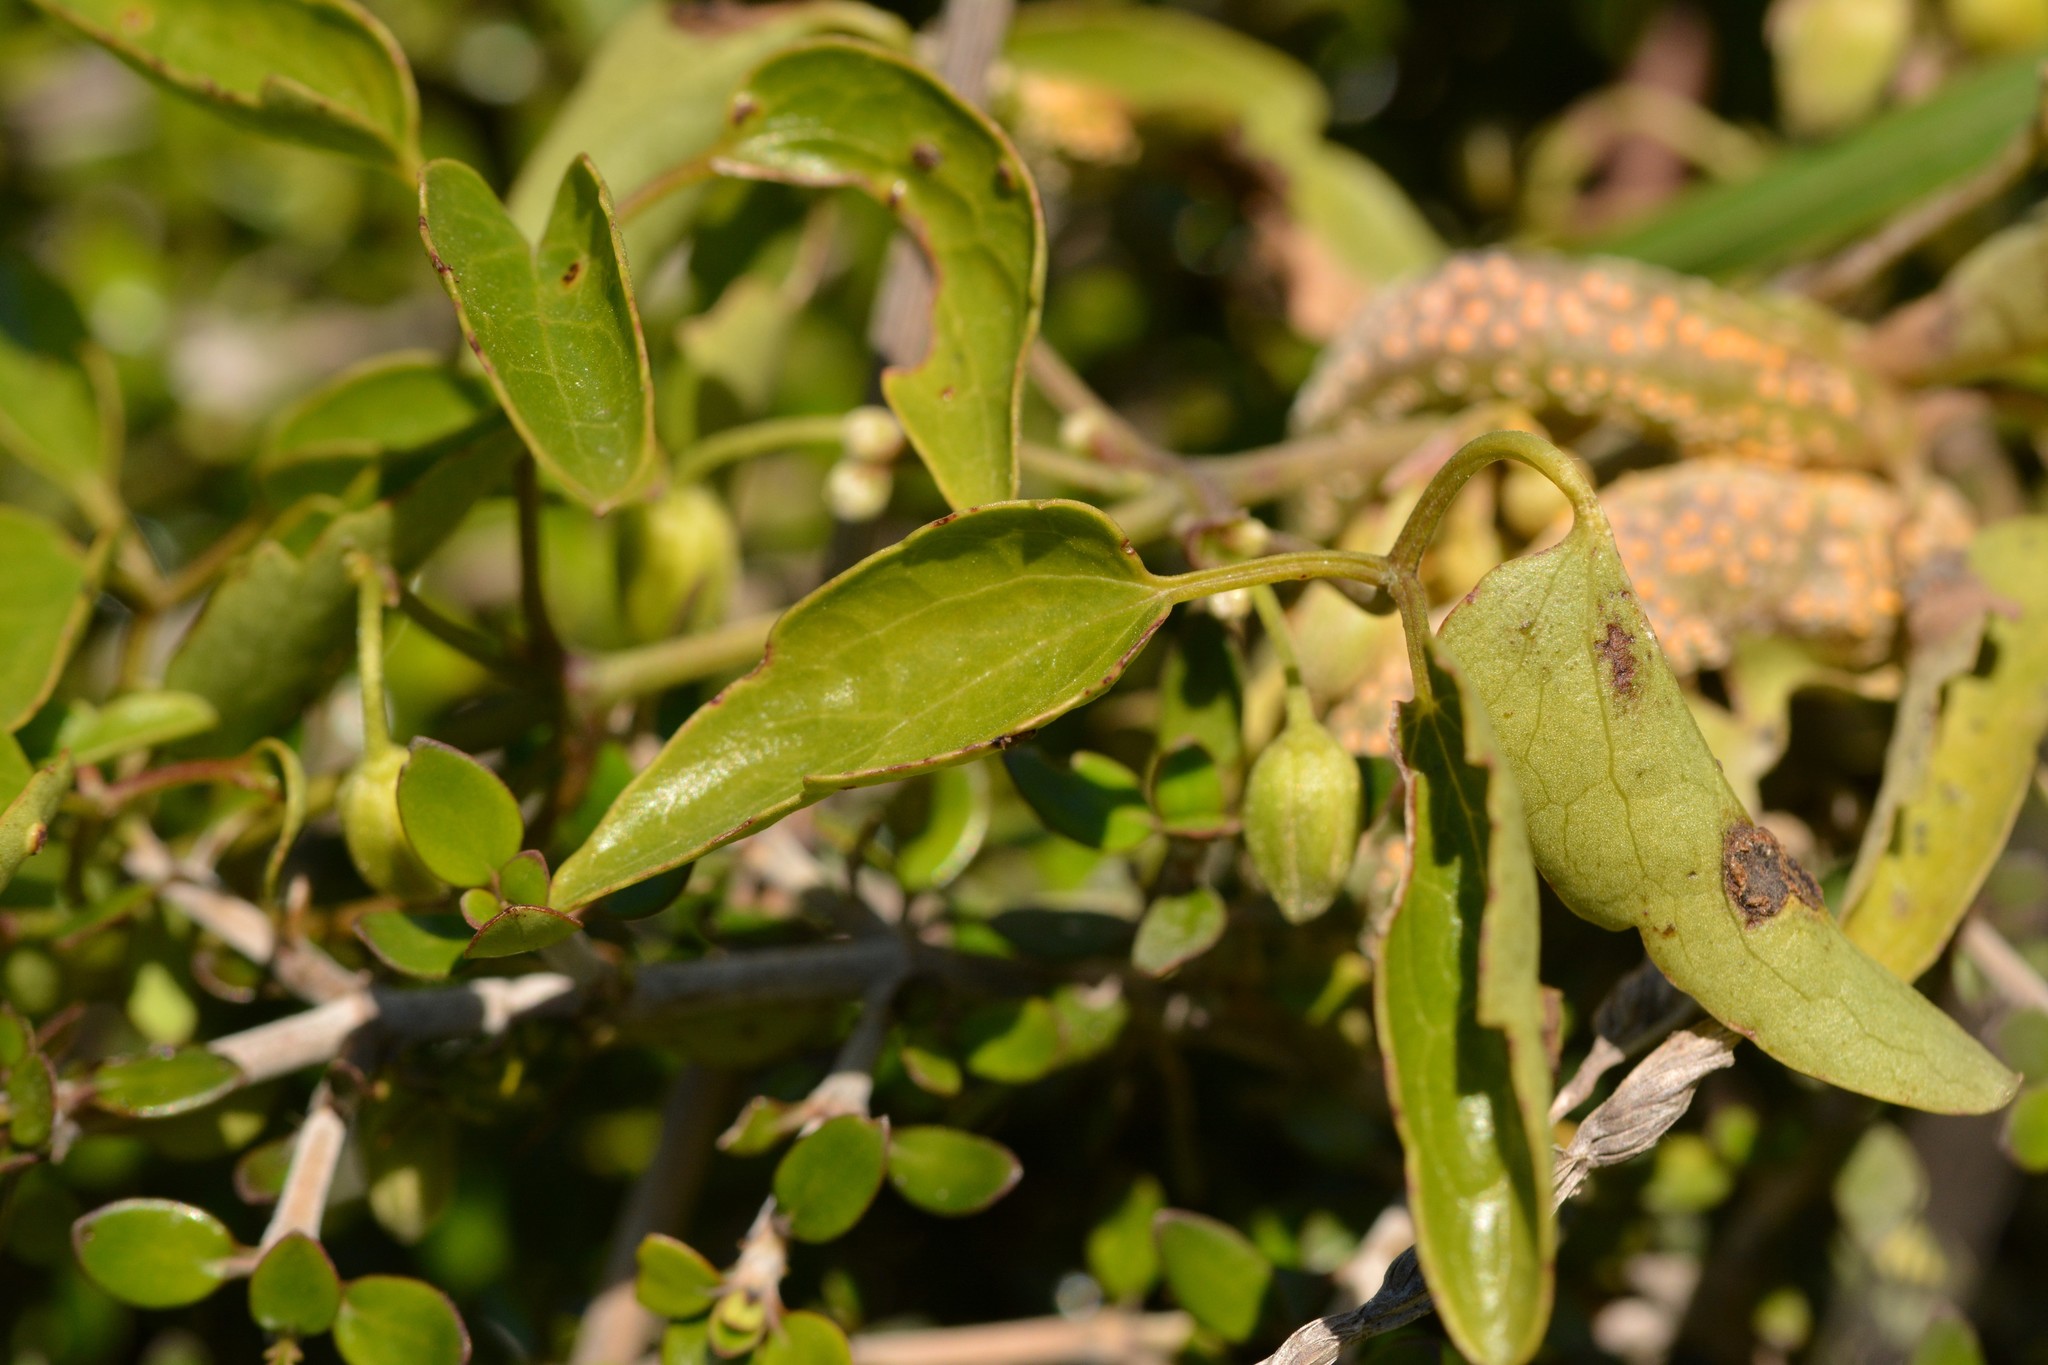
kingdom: Fungi
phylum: Basidiomycota
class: Pucciniomycetes
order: Pucciniales
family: Pucciniaceae
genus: Puccinia
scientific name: Puccinia otagensis
